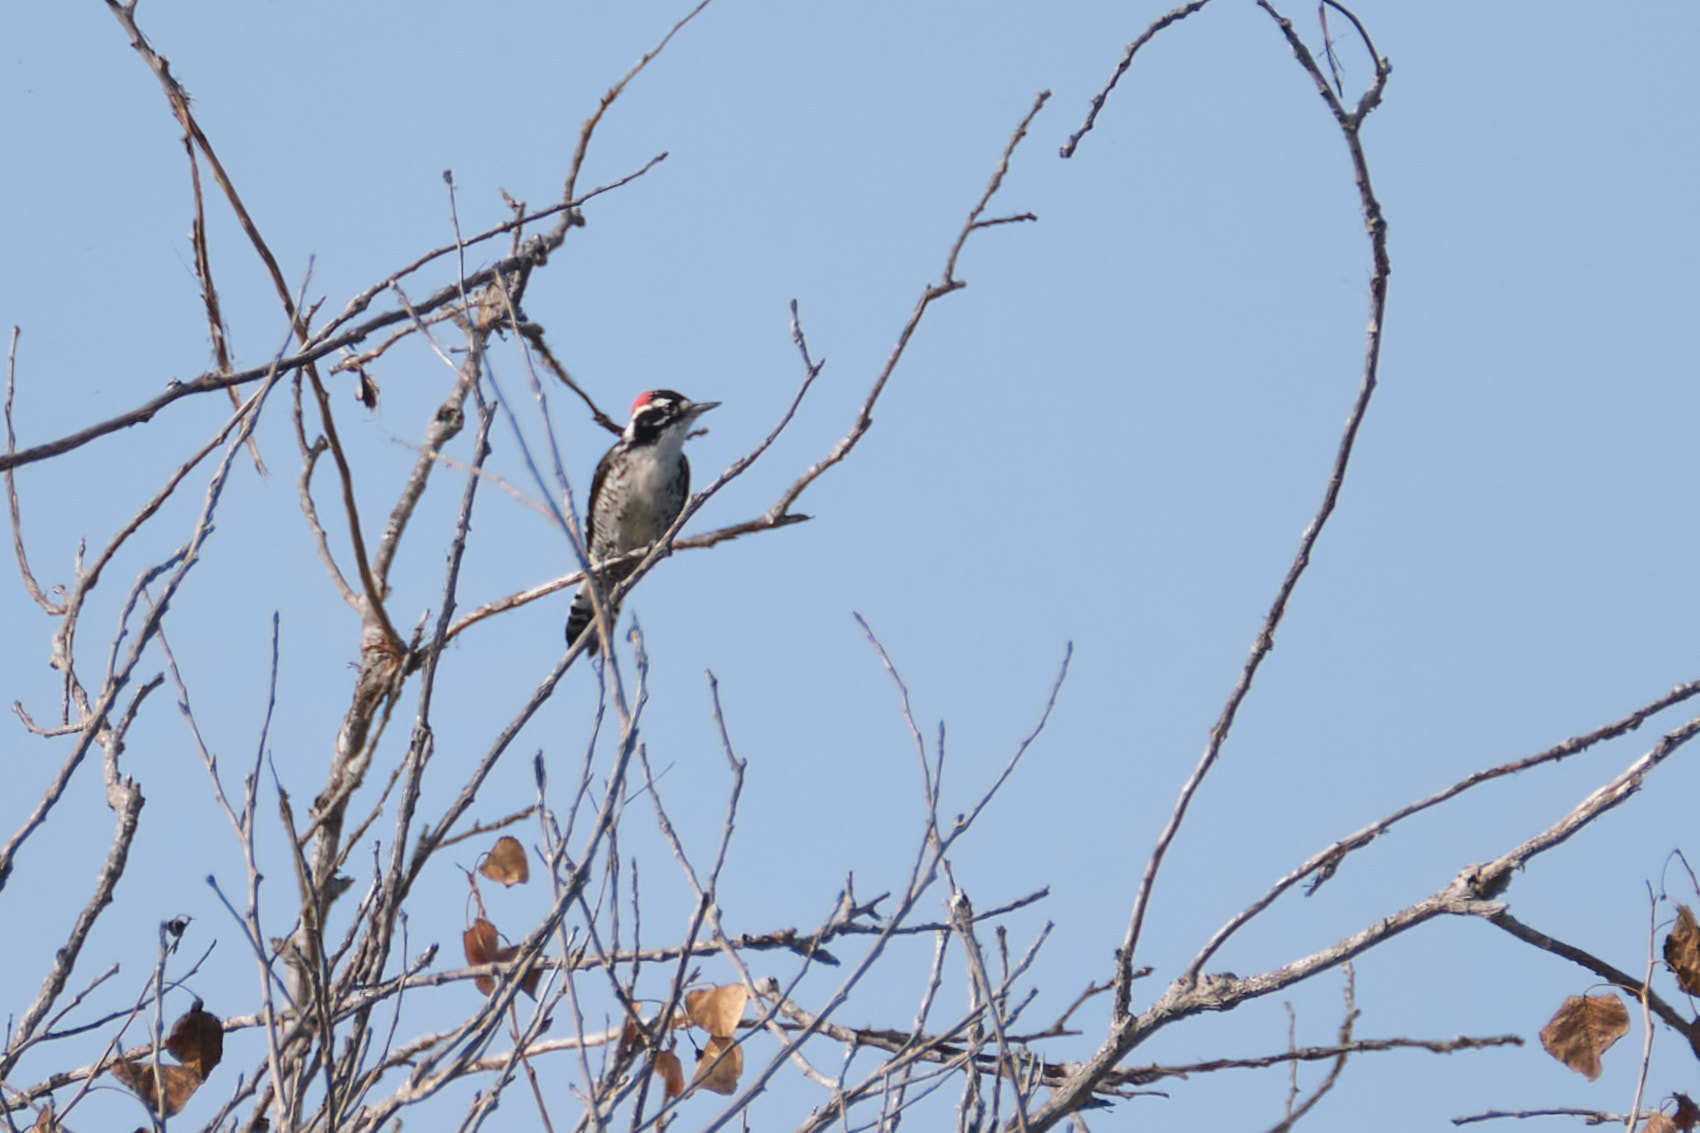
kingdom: Animalia
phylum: Chordata
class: Aves
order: Piciformes
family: Picidae
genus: Dryobates
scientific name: Dryobates nuttallii
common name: Nuttall's woodpecker
